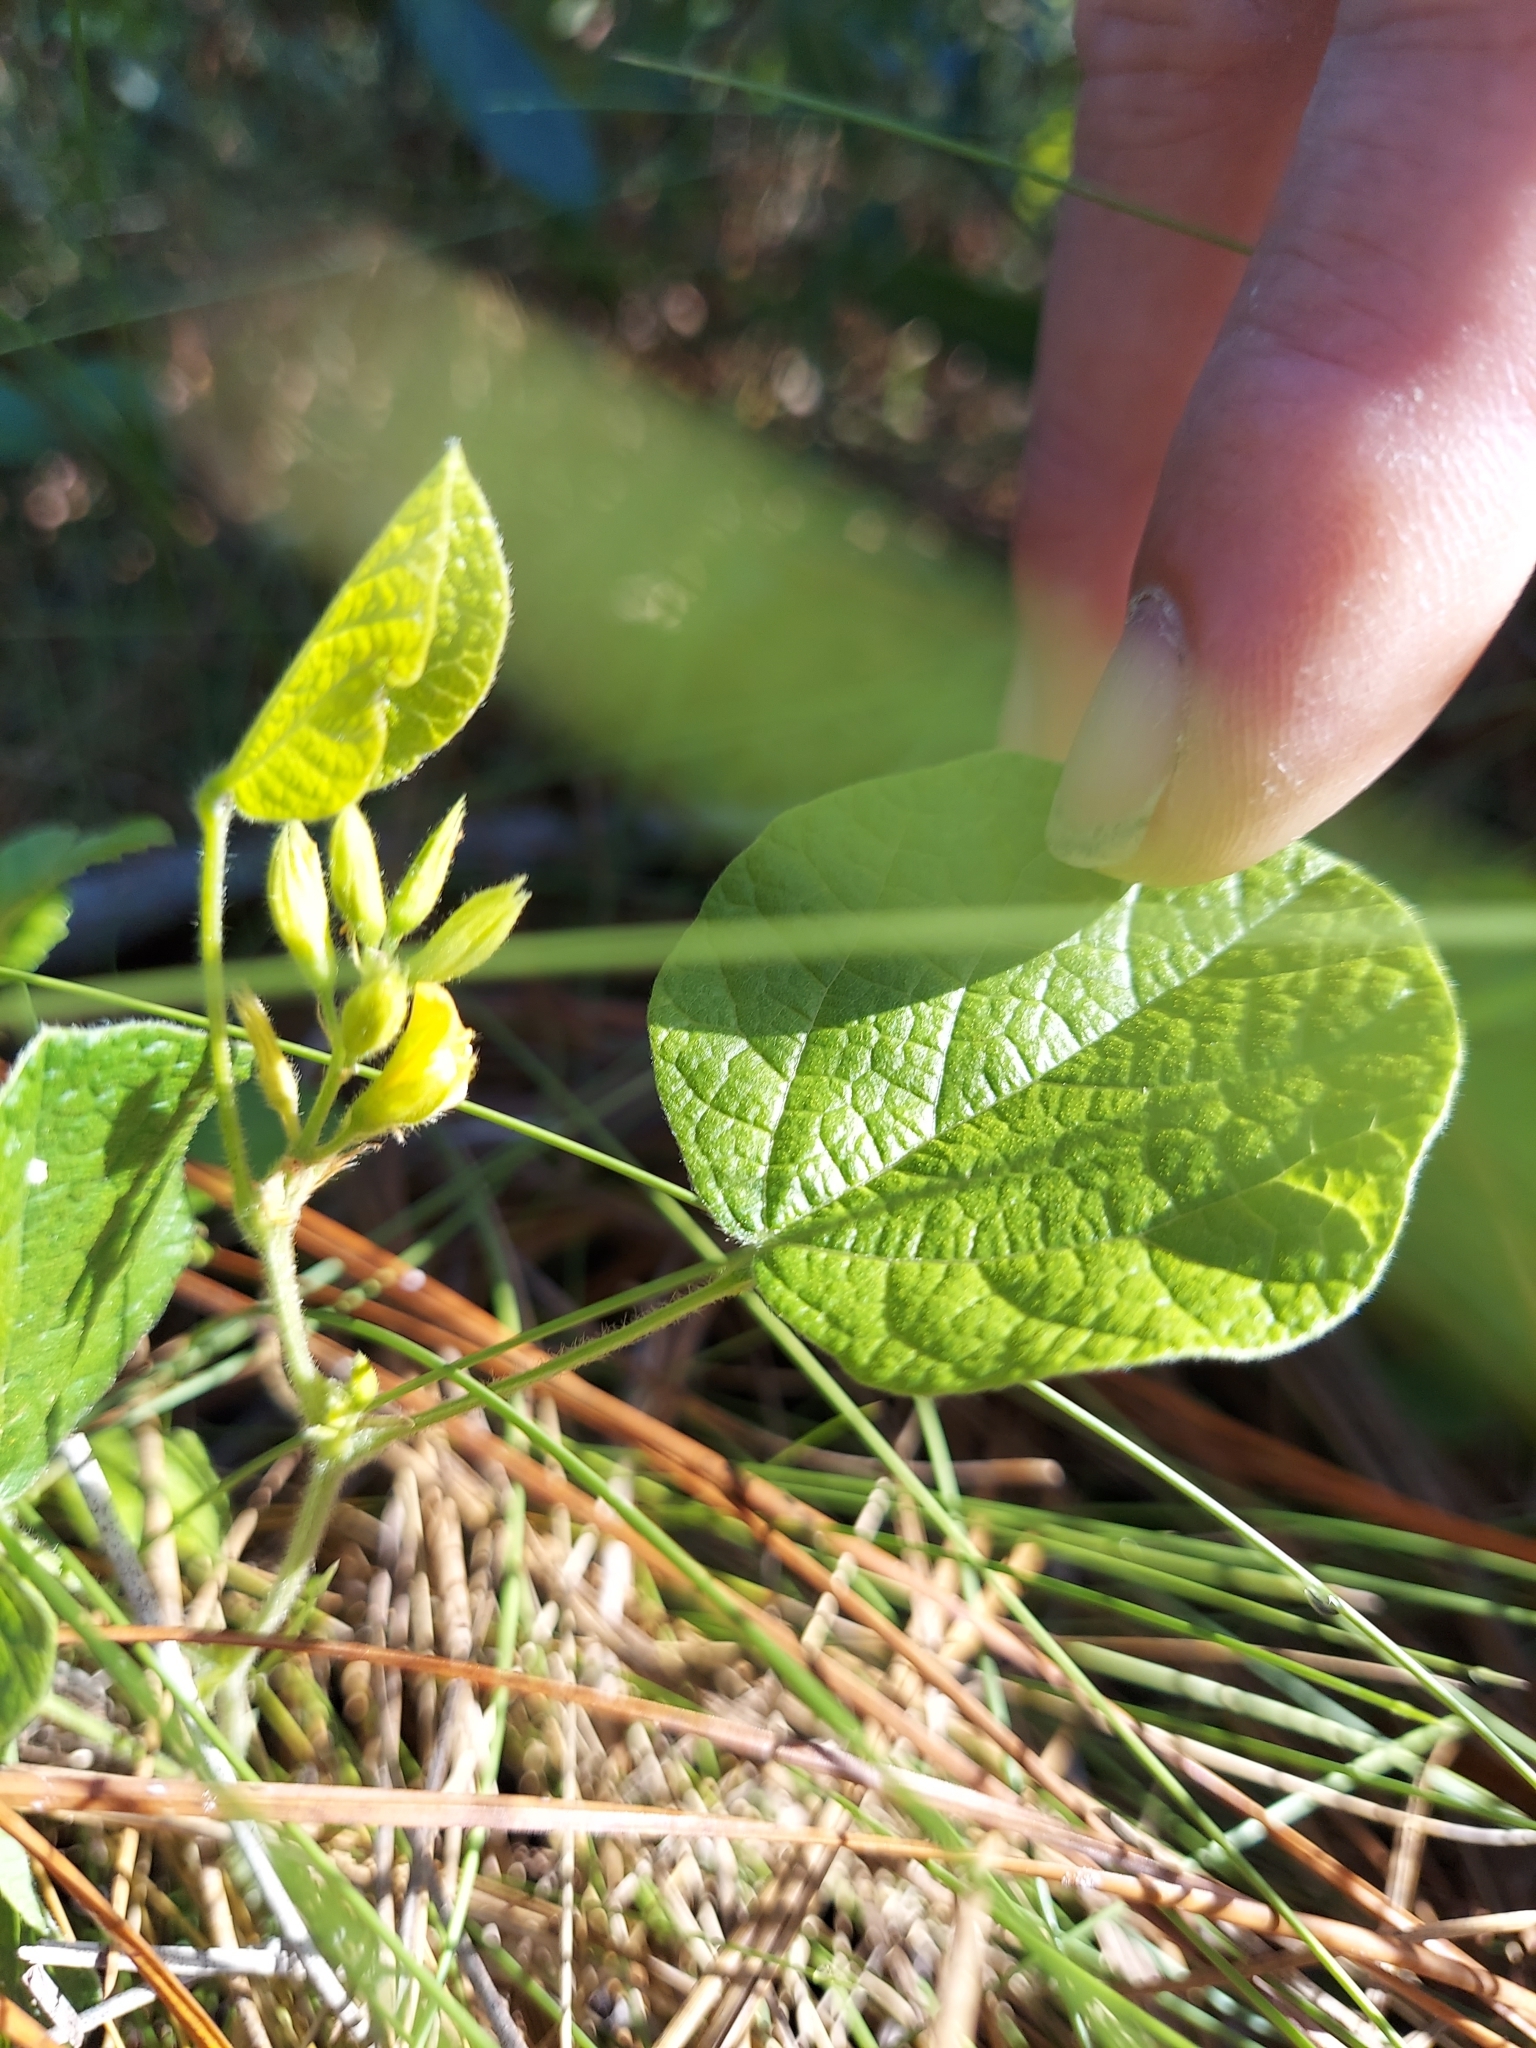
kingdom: Plantae
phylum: Tracheophyta
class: Magnoliopsida
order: Fabales
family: Fabaceae
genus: Rhynchosia
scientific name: Rhynchosia reniformis
